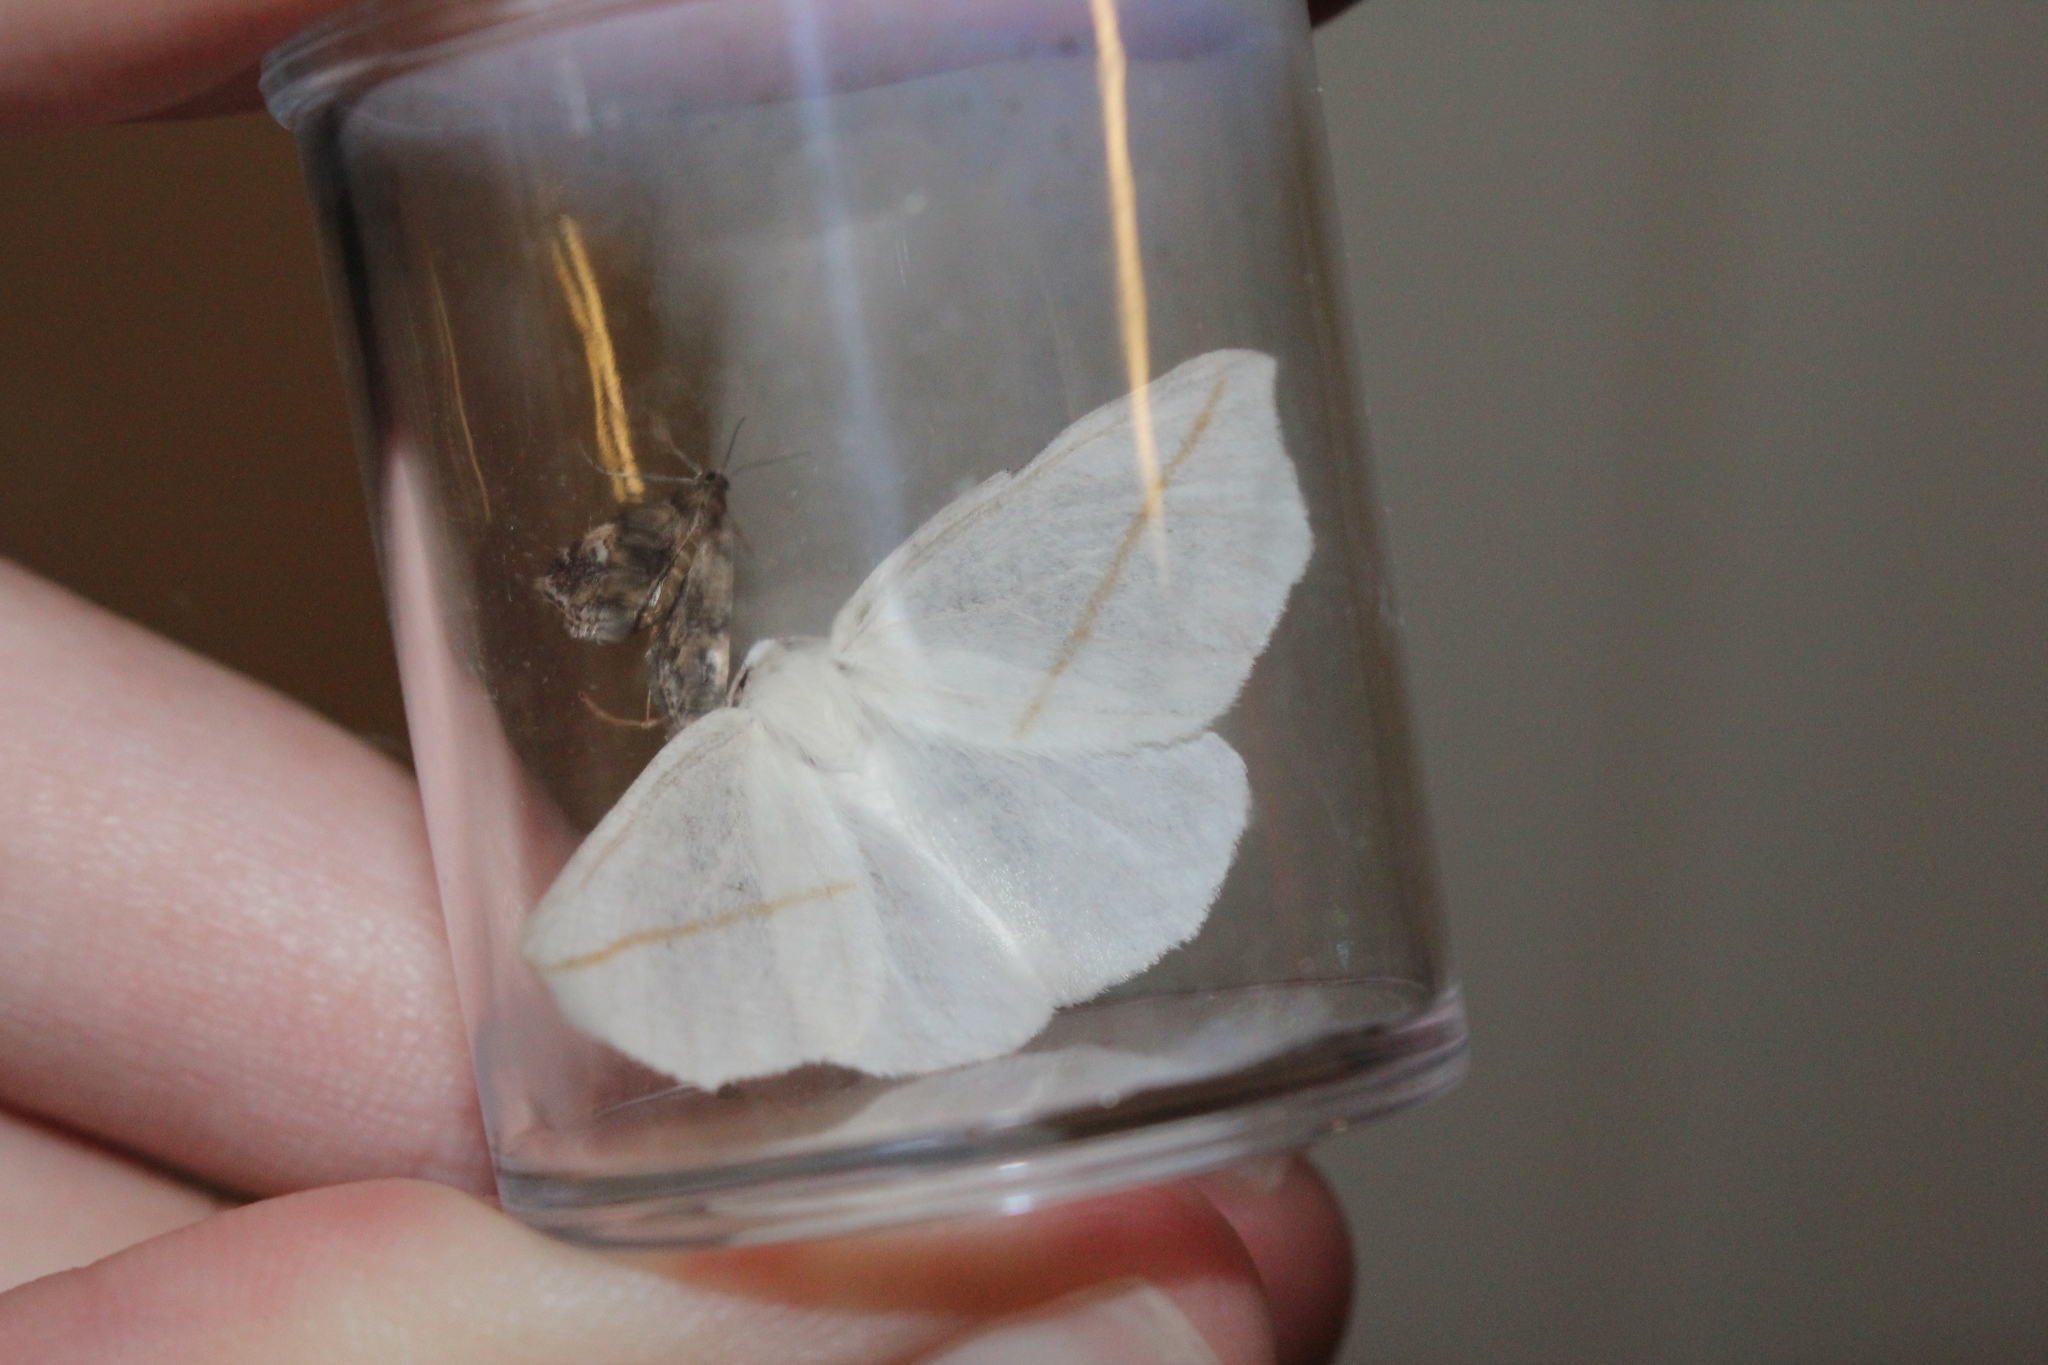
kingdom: Animalia
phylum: Arthropoda
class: Insecta
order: Lepidoptera
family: Geometridae
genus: Tetracis
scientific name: Tetracis cachexiata
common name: White slant-line
